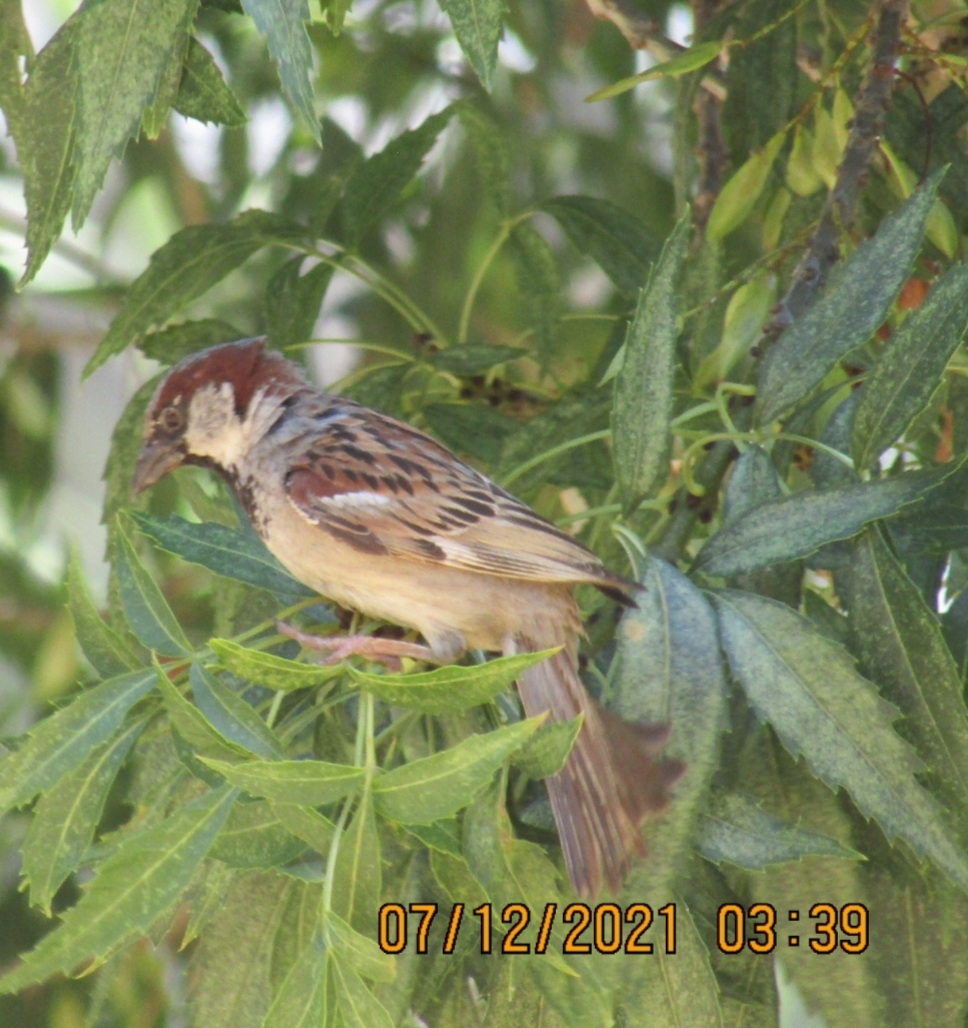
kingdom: Animalia
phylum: Chordata
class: Aves
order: Passeriformes
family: Passeridae
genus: Passer
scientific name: Passer domesticus
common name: House sparrow
